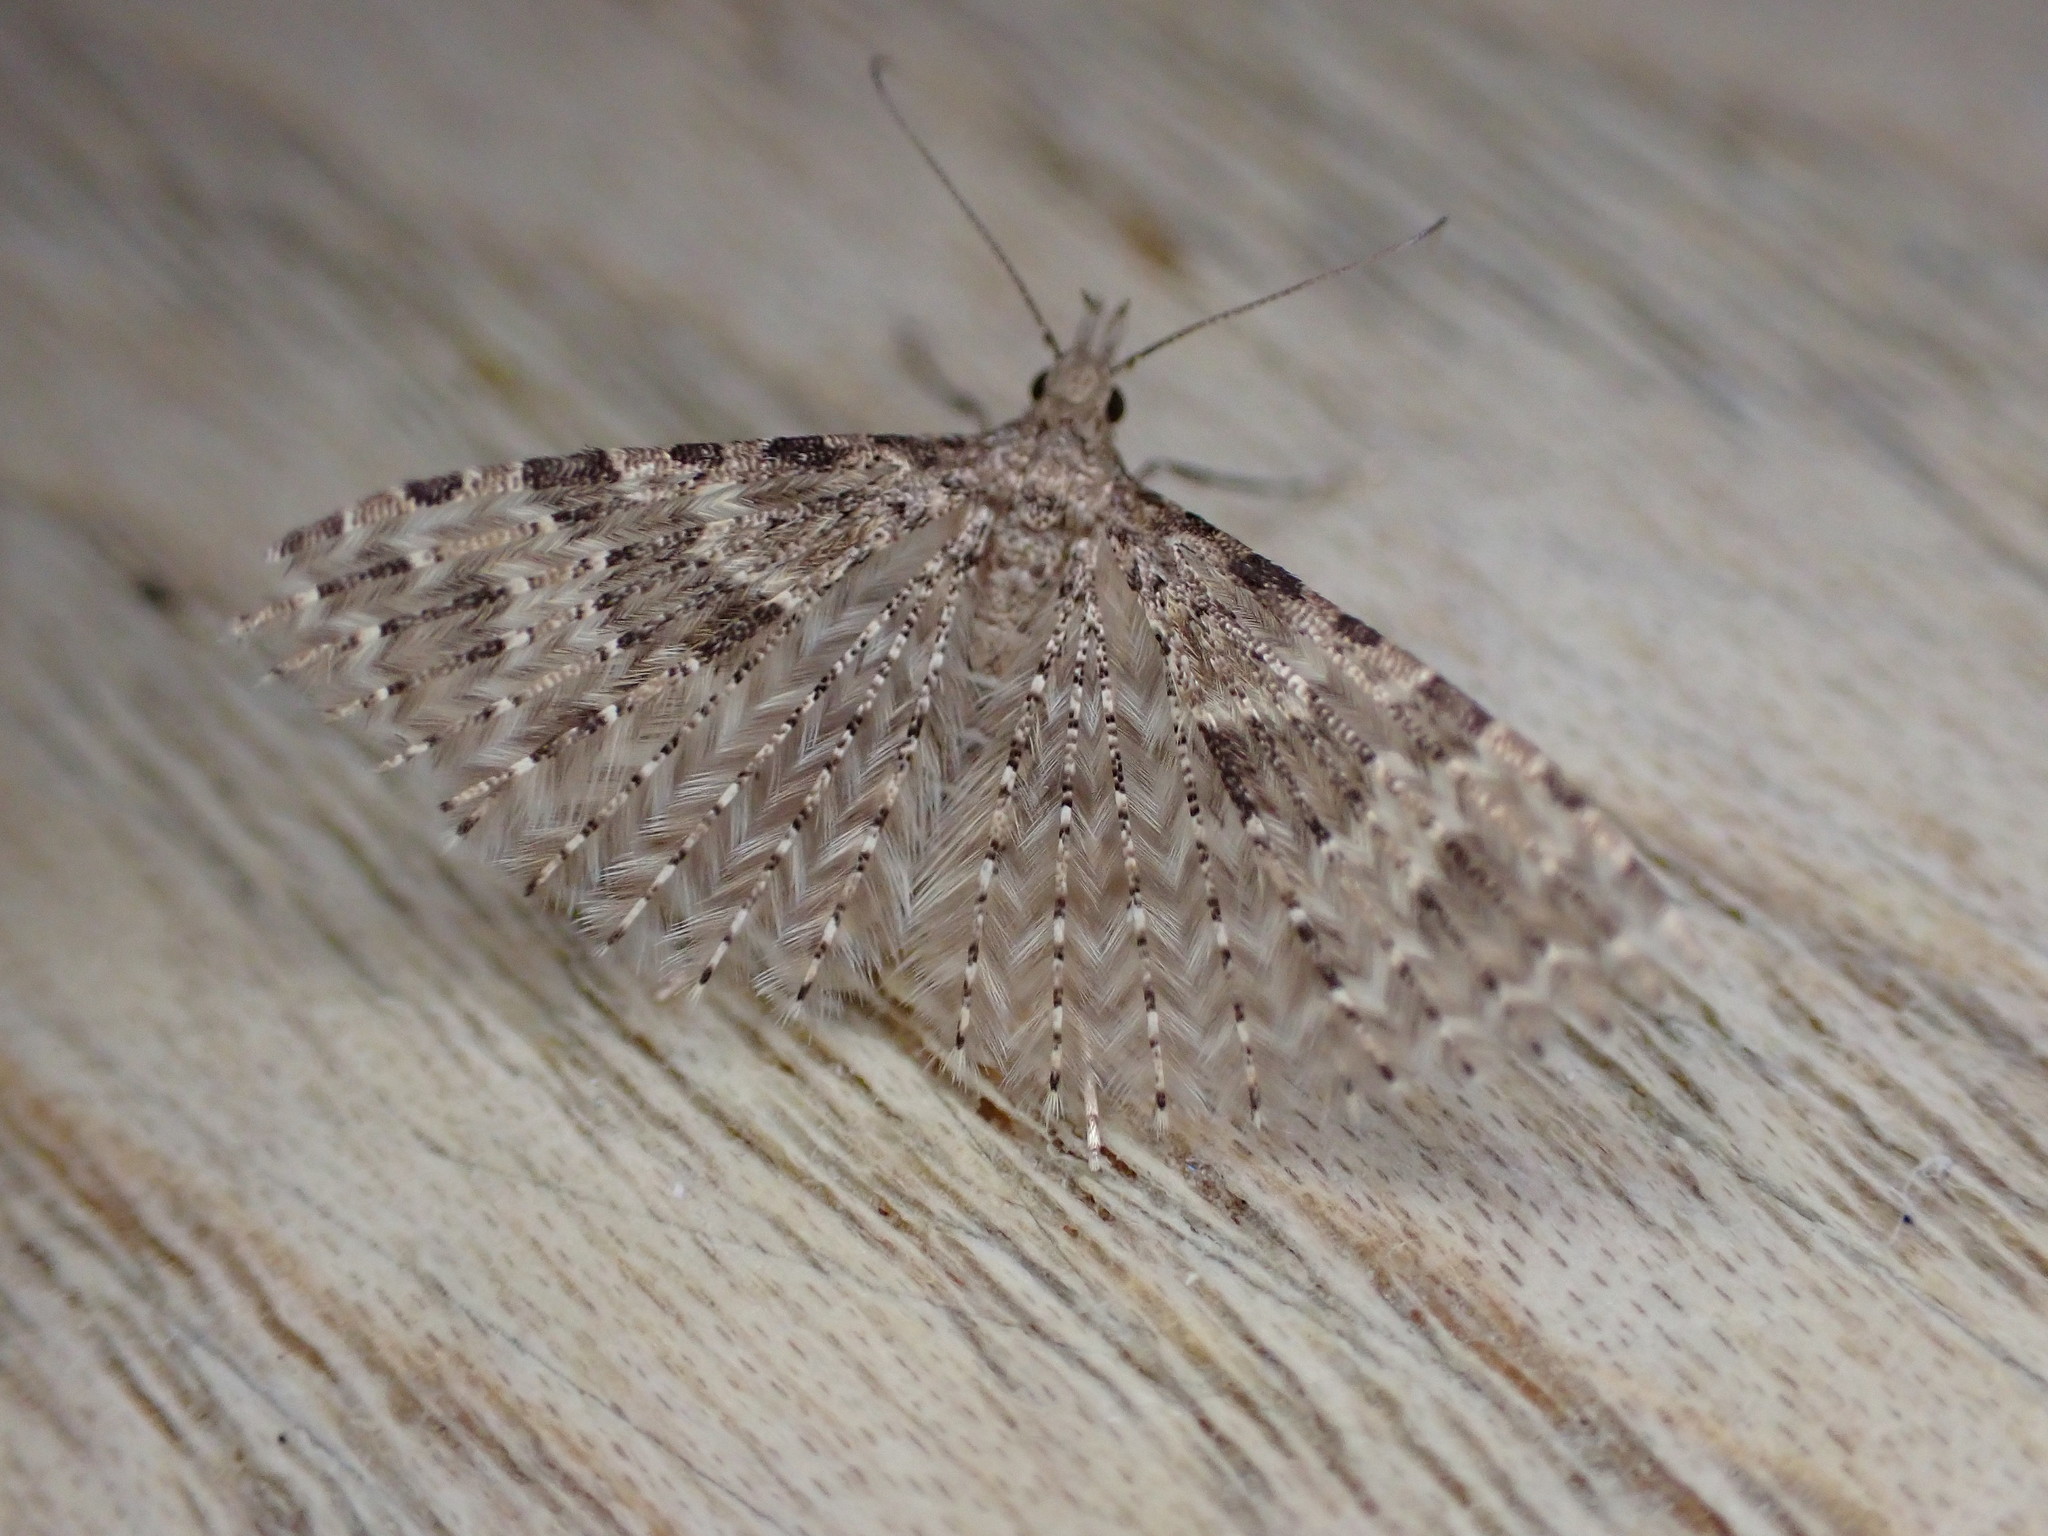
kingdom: Animalia
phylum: Arthropoda
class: Insecta
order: Lepidoptera
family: Alucitidae
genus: Alucita
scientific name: Alucita hexadactyla
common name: Twenty-plume moth
